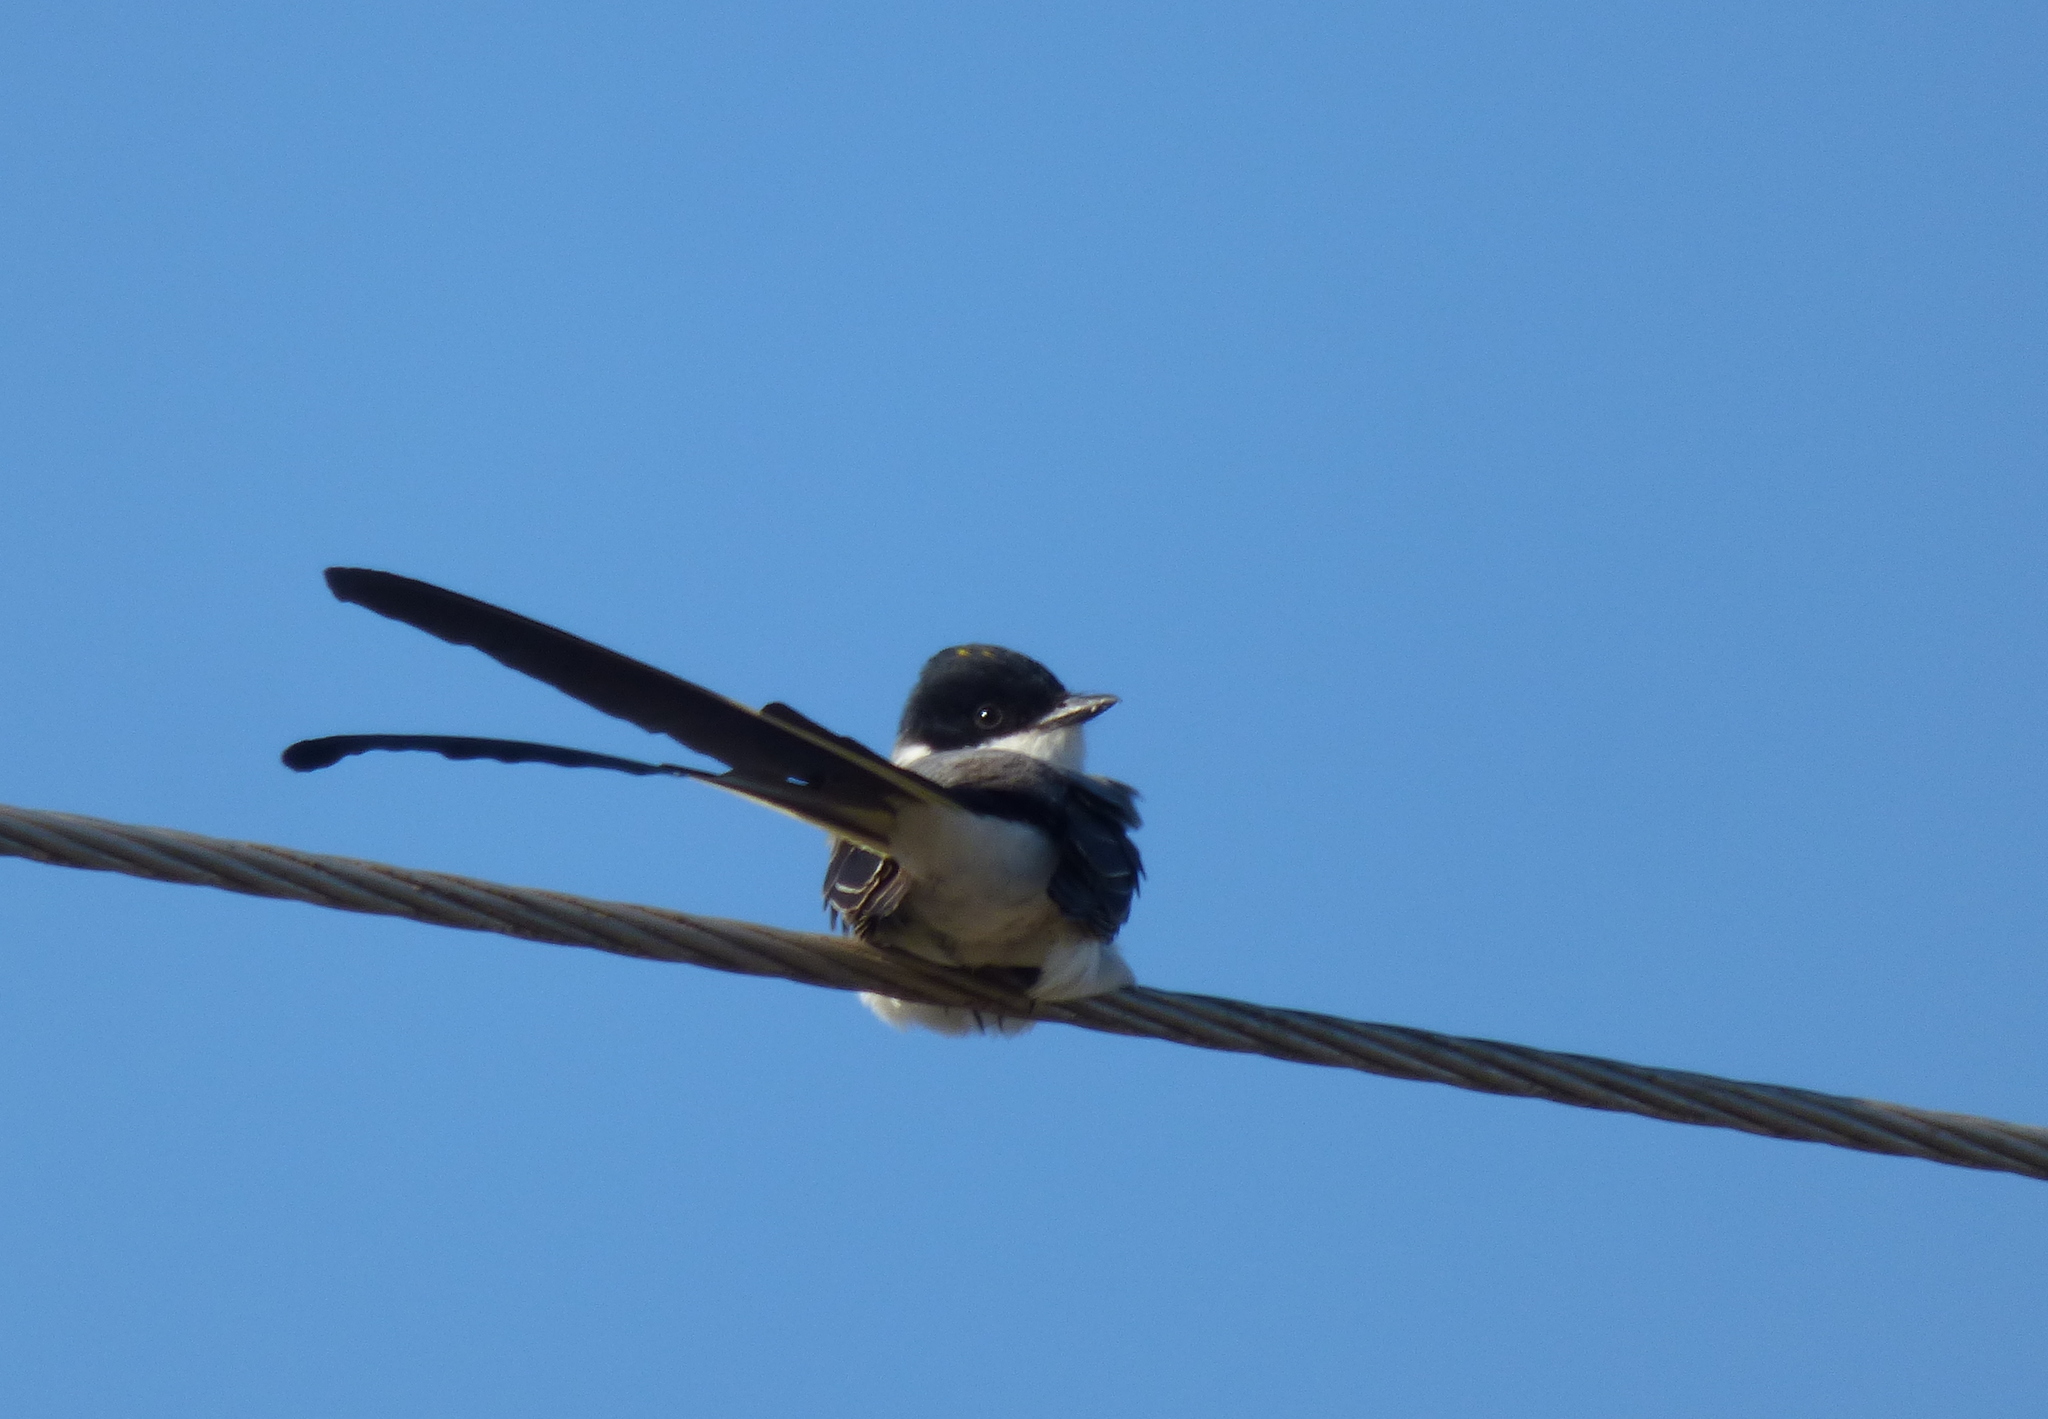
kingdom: Animalia
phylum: Chordata
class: Aves
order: Passeriformes
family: Tyrannidae
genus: Tyrannus
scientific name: Tyrannus savana
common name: Fork-tailed flycatcher
